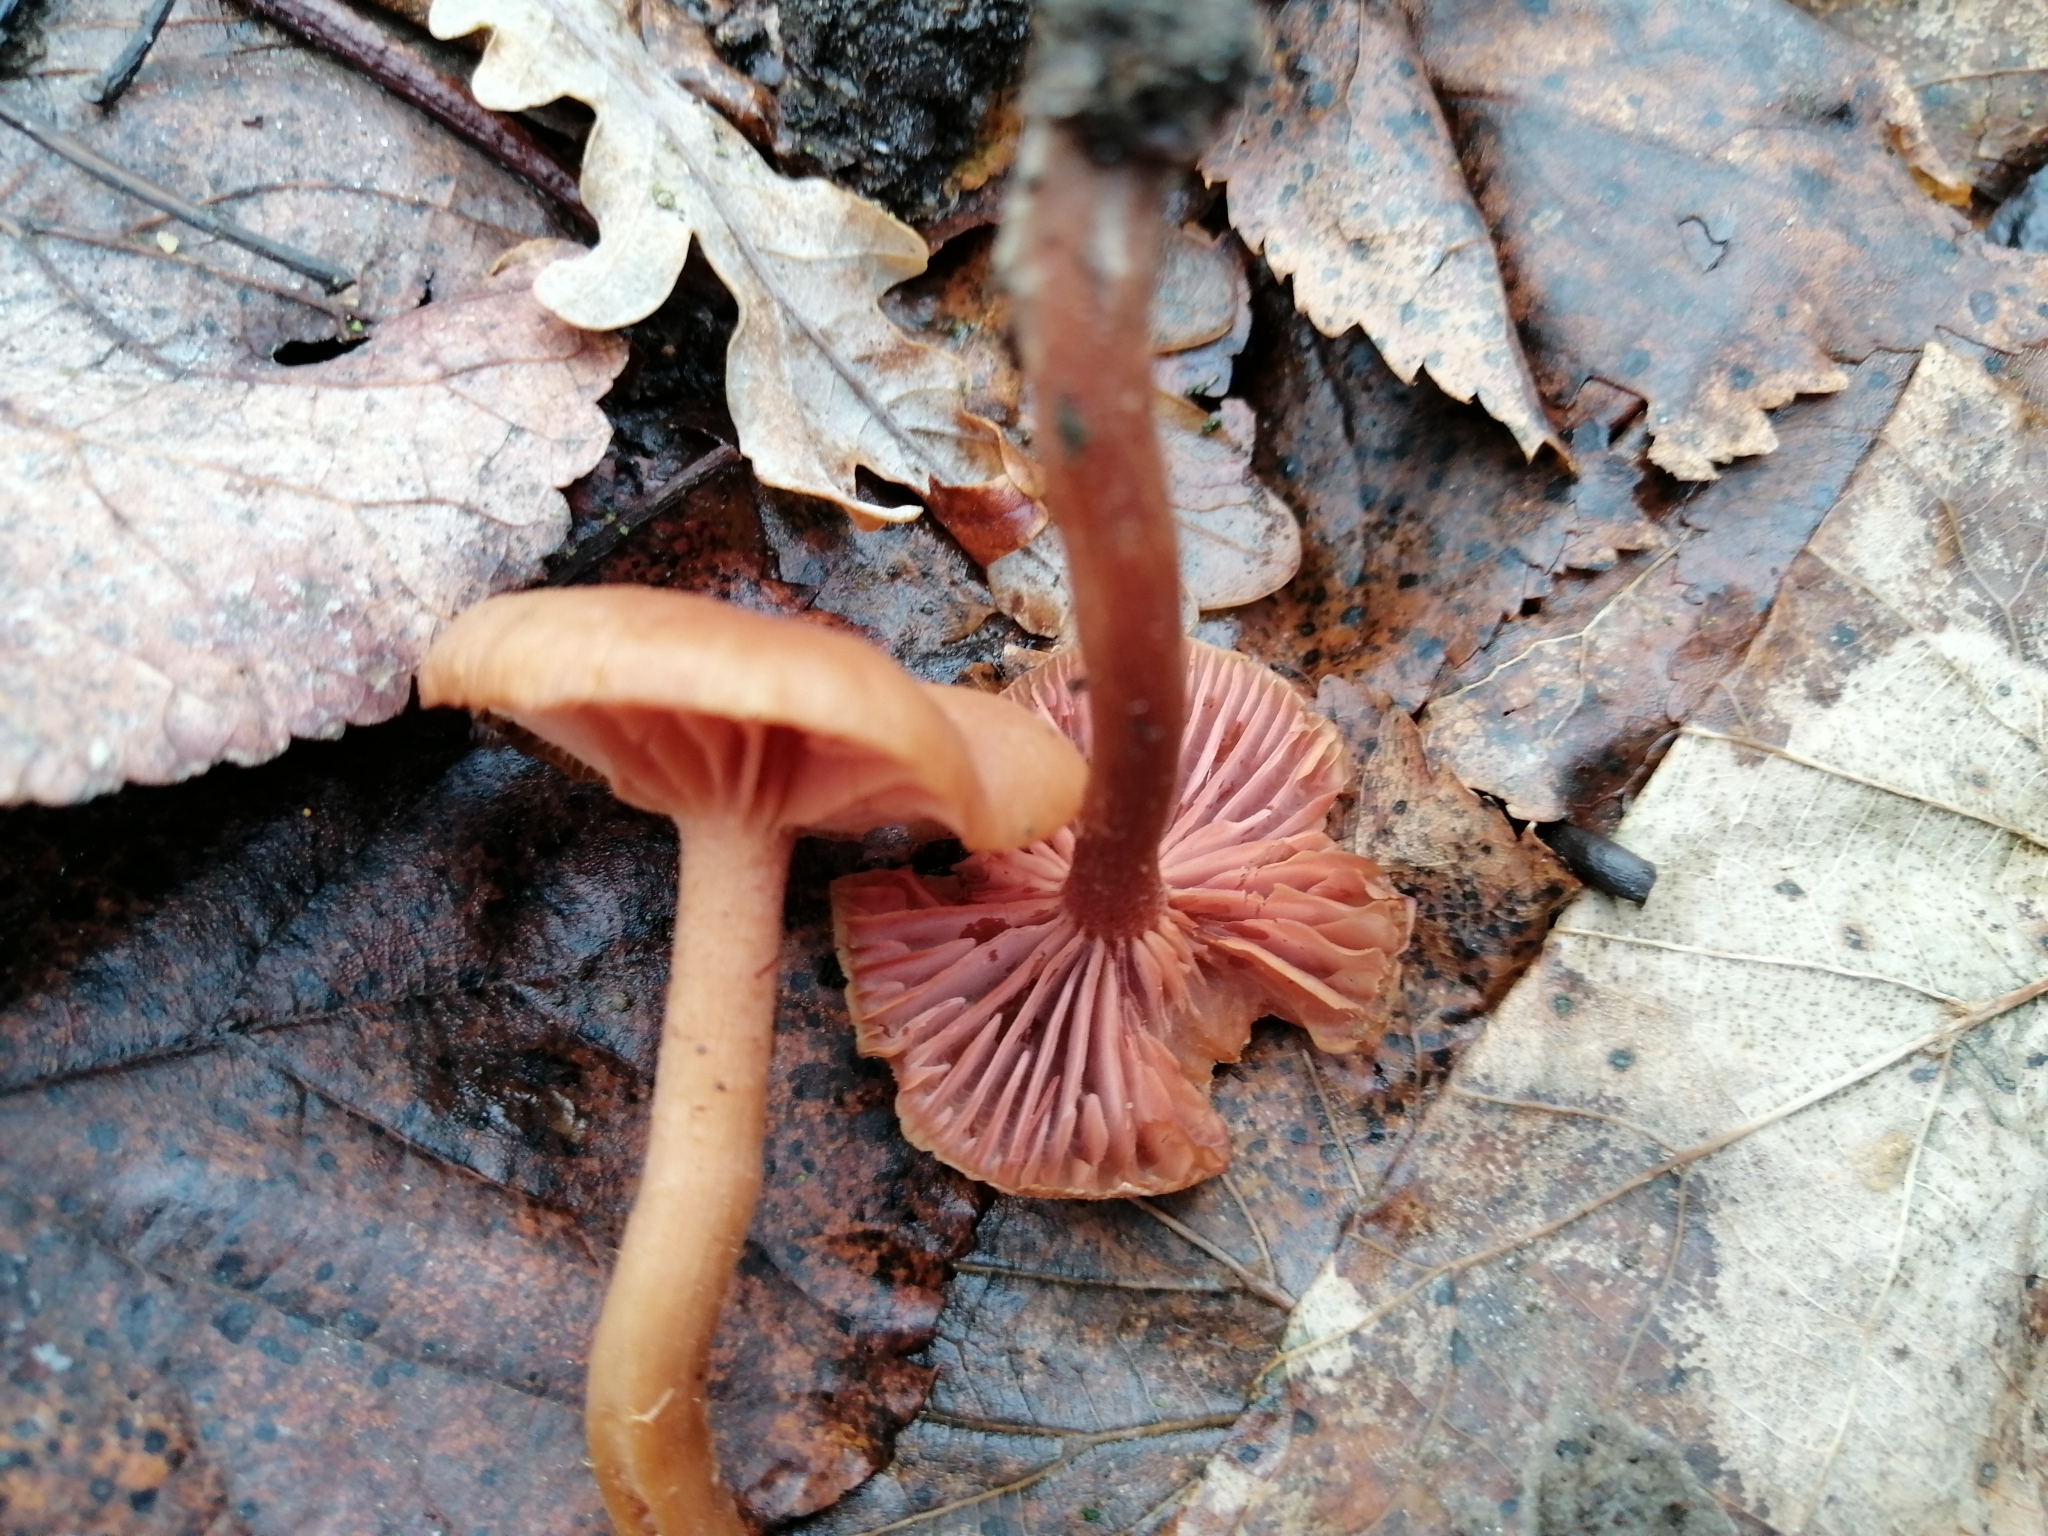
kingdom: Fungi
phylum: Basidiomycota
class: Agaricomycetes
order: Agaricales
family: Hydnangiaceae
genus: Laccaria
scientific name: Laccaria laccata
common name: Deceiver
